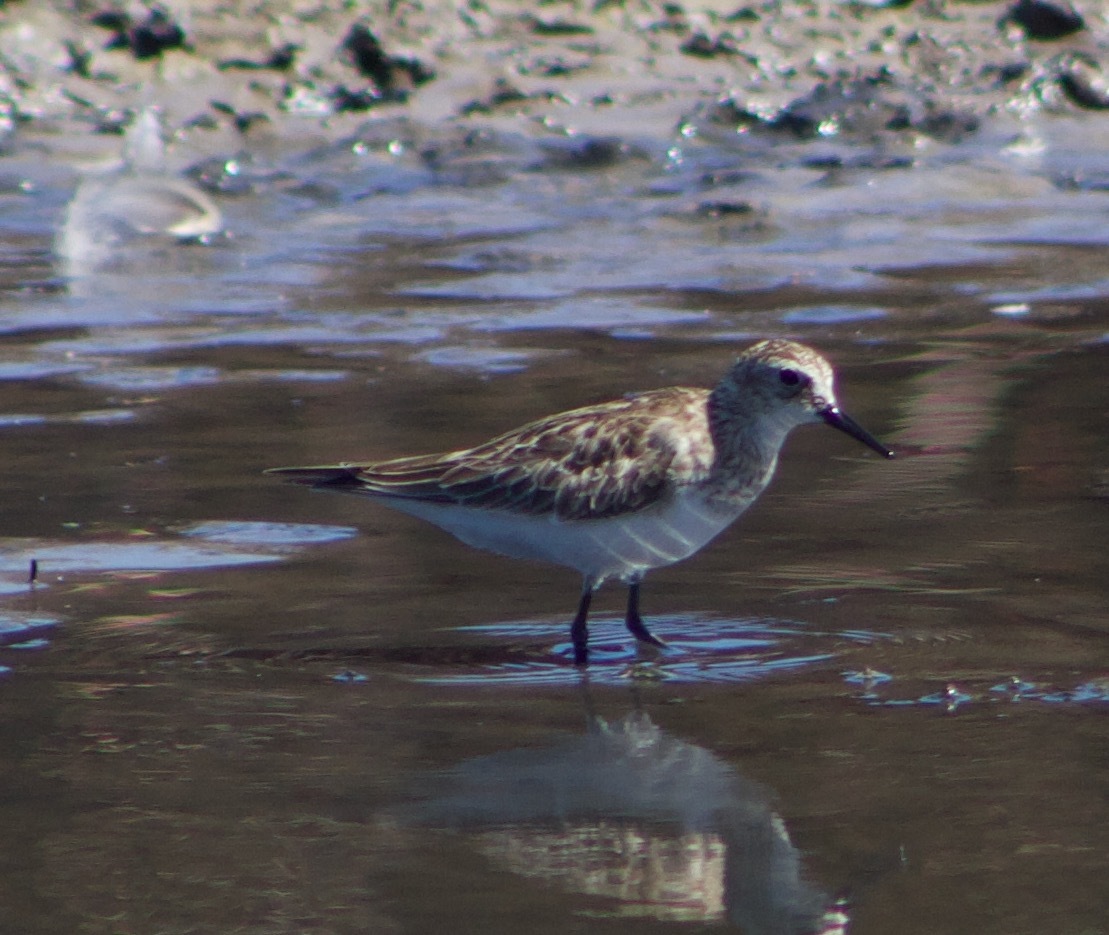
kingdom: Animalia
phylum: Chordata
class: Aves
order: Charadriiformes
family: Scolopacidae
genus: Calidris
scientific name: Calidris bairdii
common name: Baird's sandpiper
